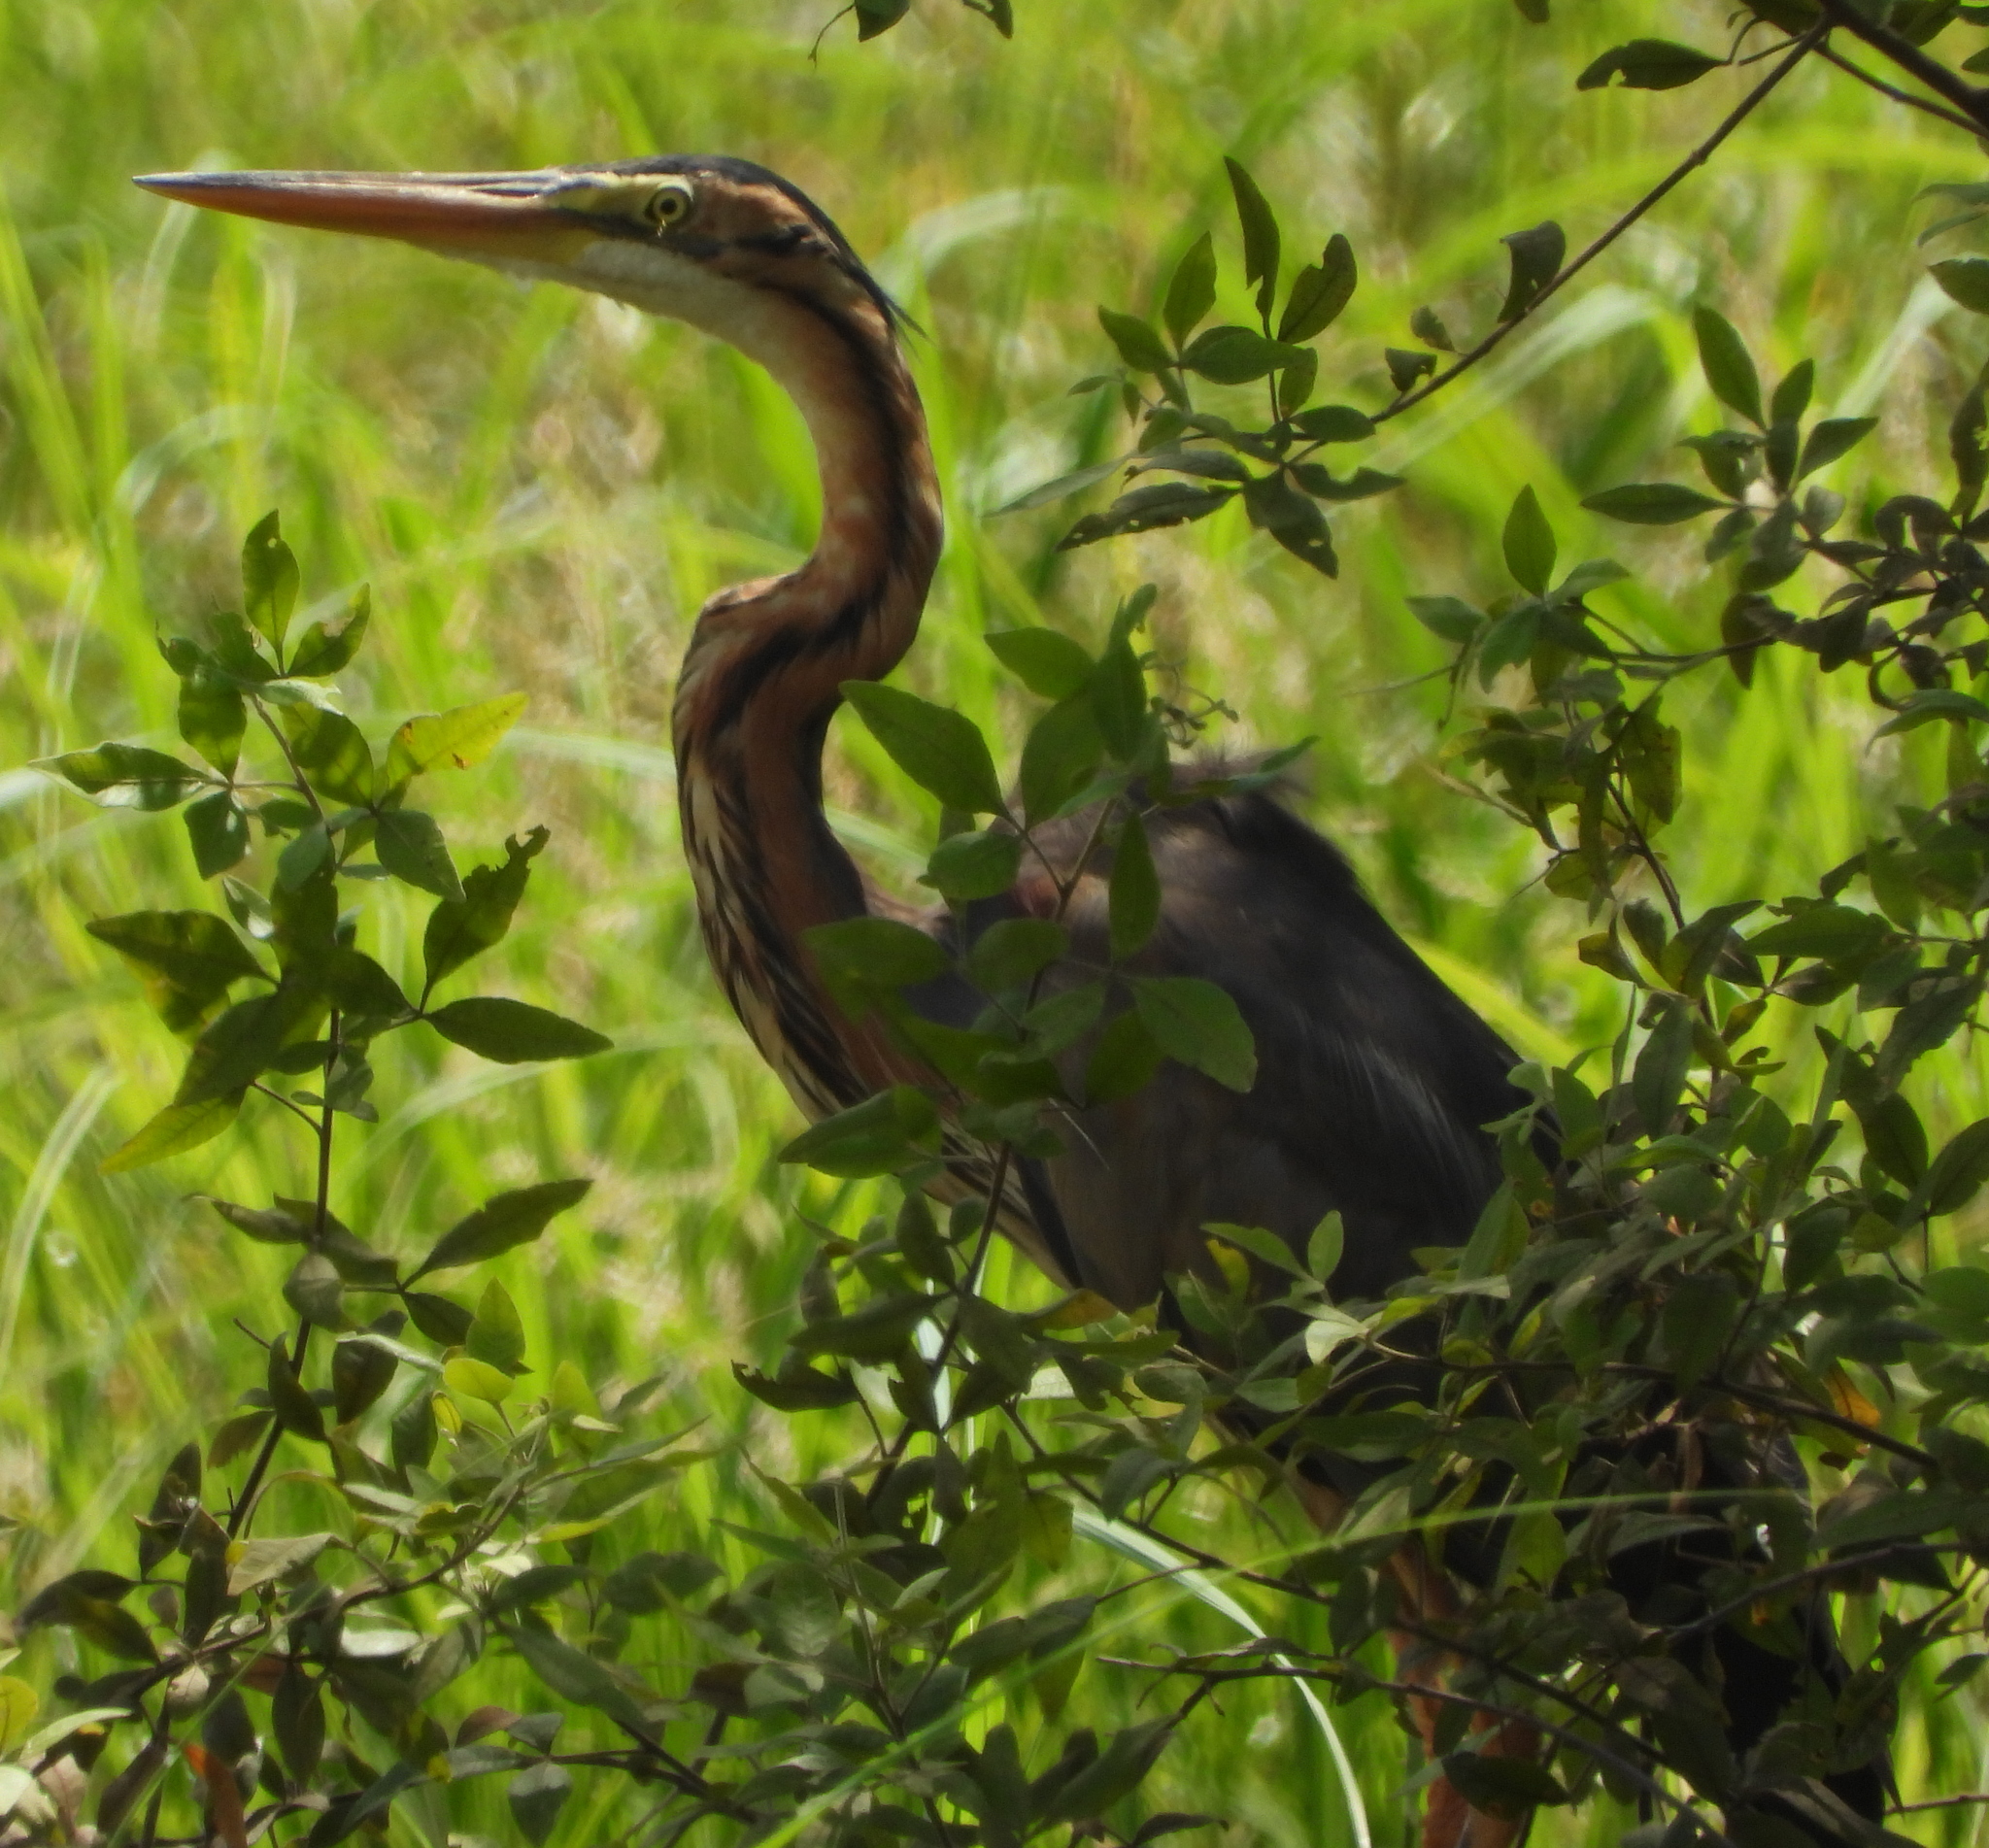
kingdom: Animalia
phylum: Chordata
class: Aves
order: Pelecaniformes
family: Ardeidae
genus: Ardea
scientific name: Ardea purpurea
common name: Purple heron
